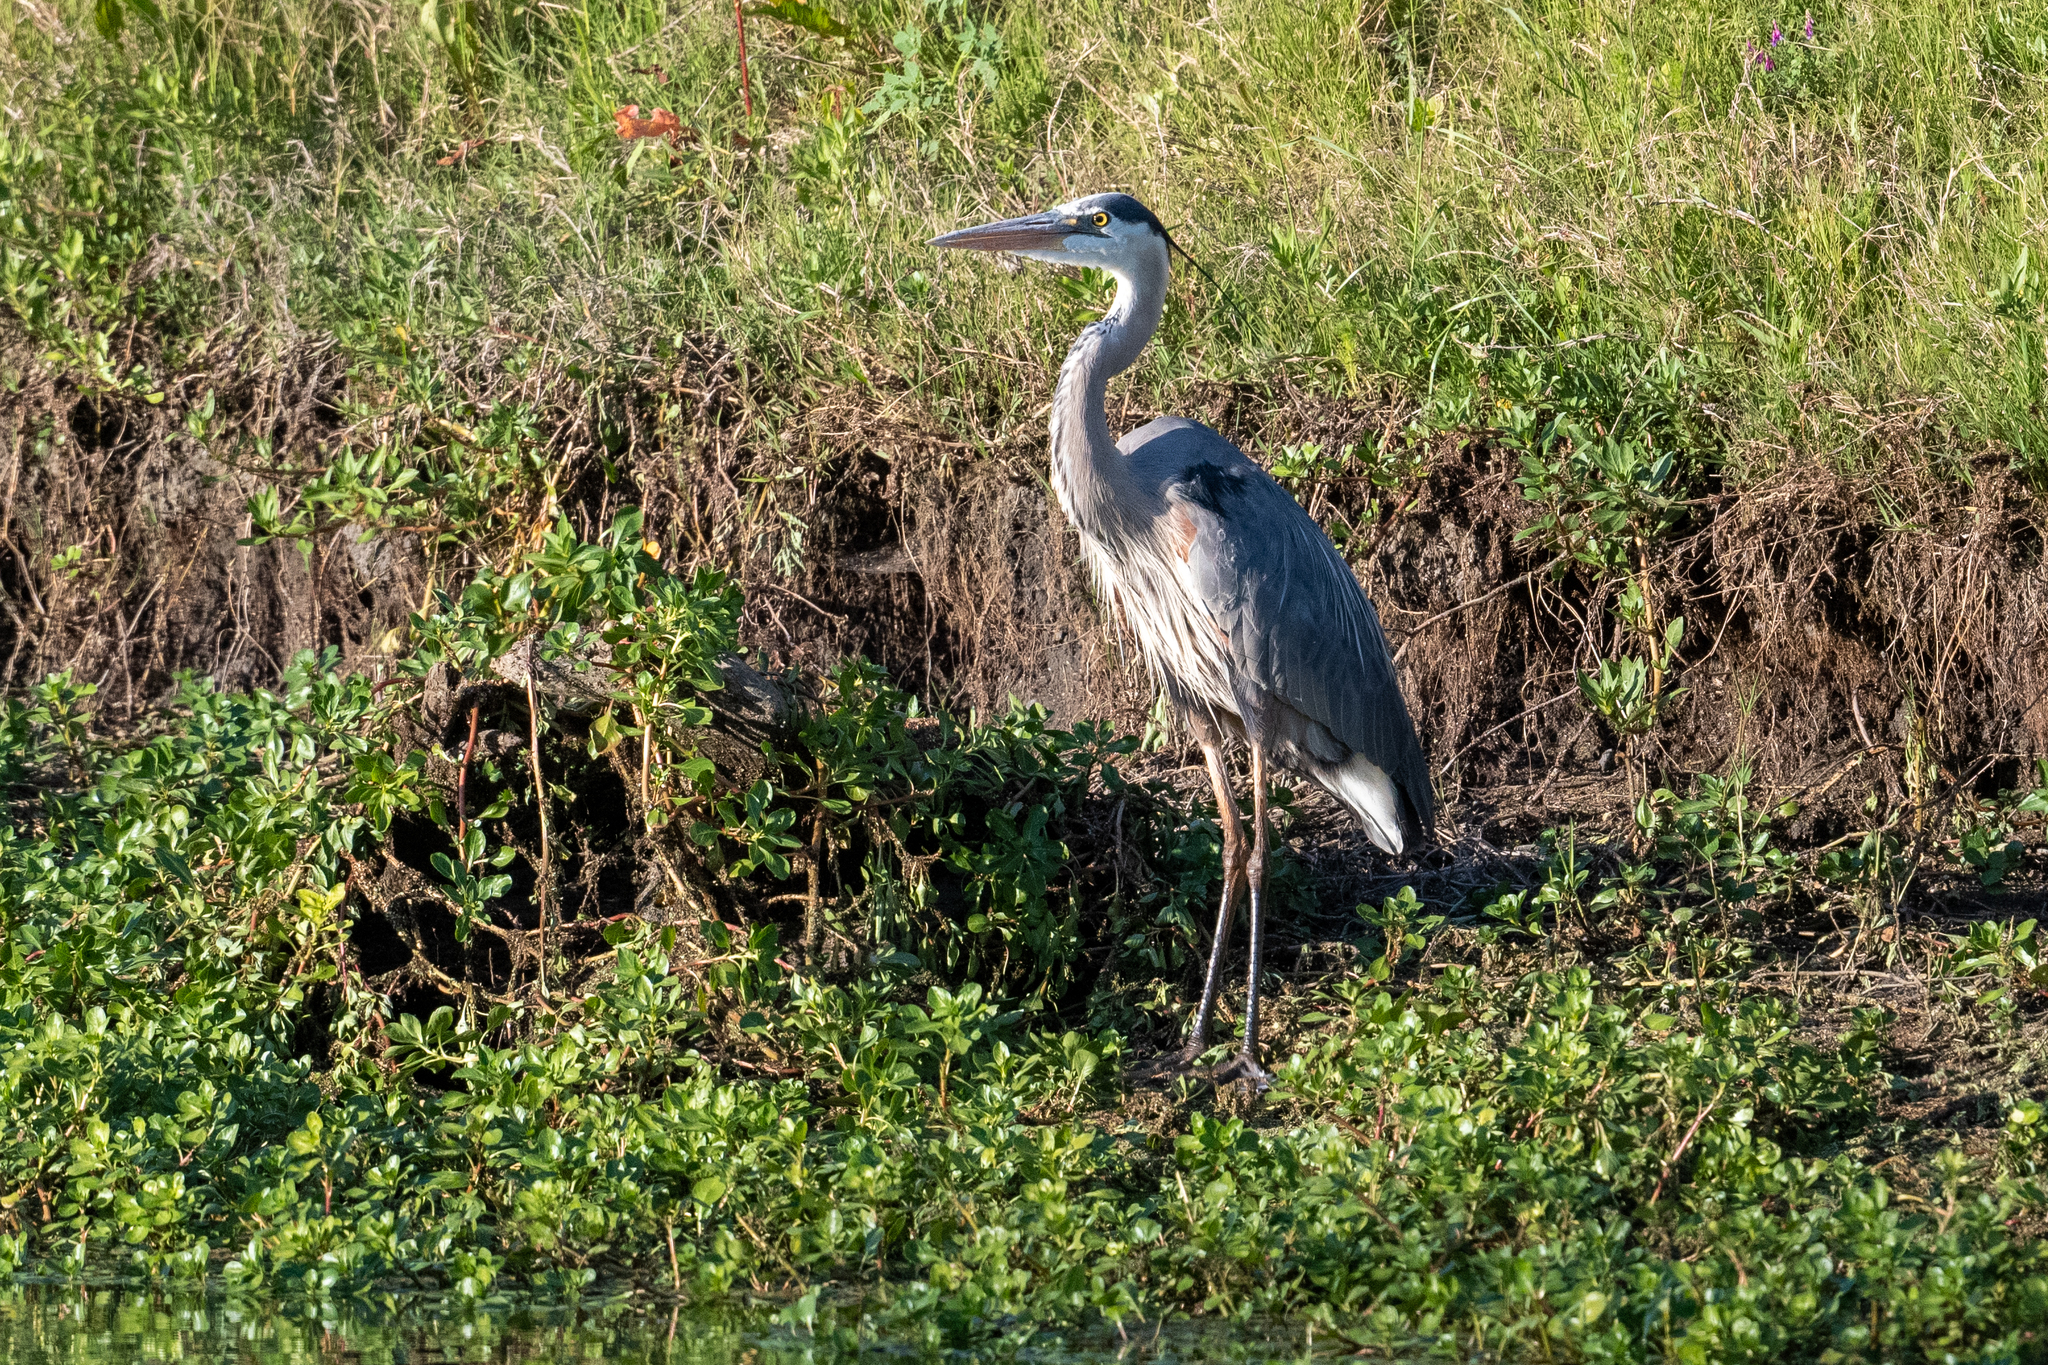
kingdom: Animalia
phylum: Chordata
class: Aves
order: Pelecaniformes
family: Ardeidae
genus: Ardea
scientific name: Ardea herodias
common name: Great blue heron
